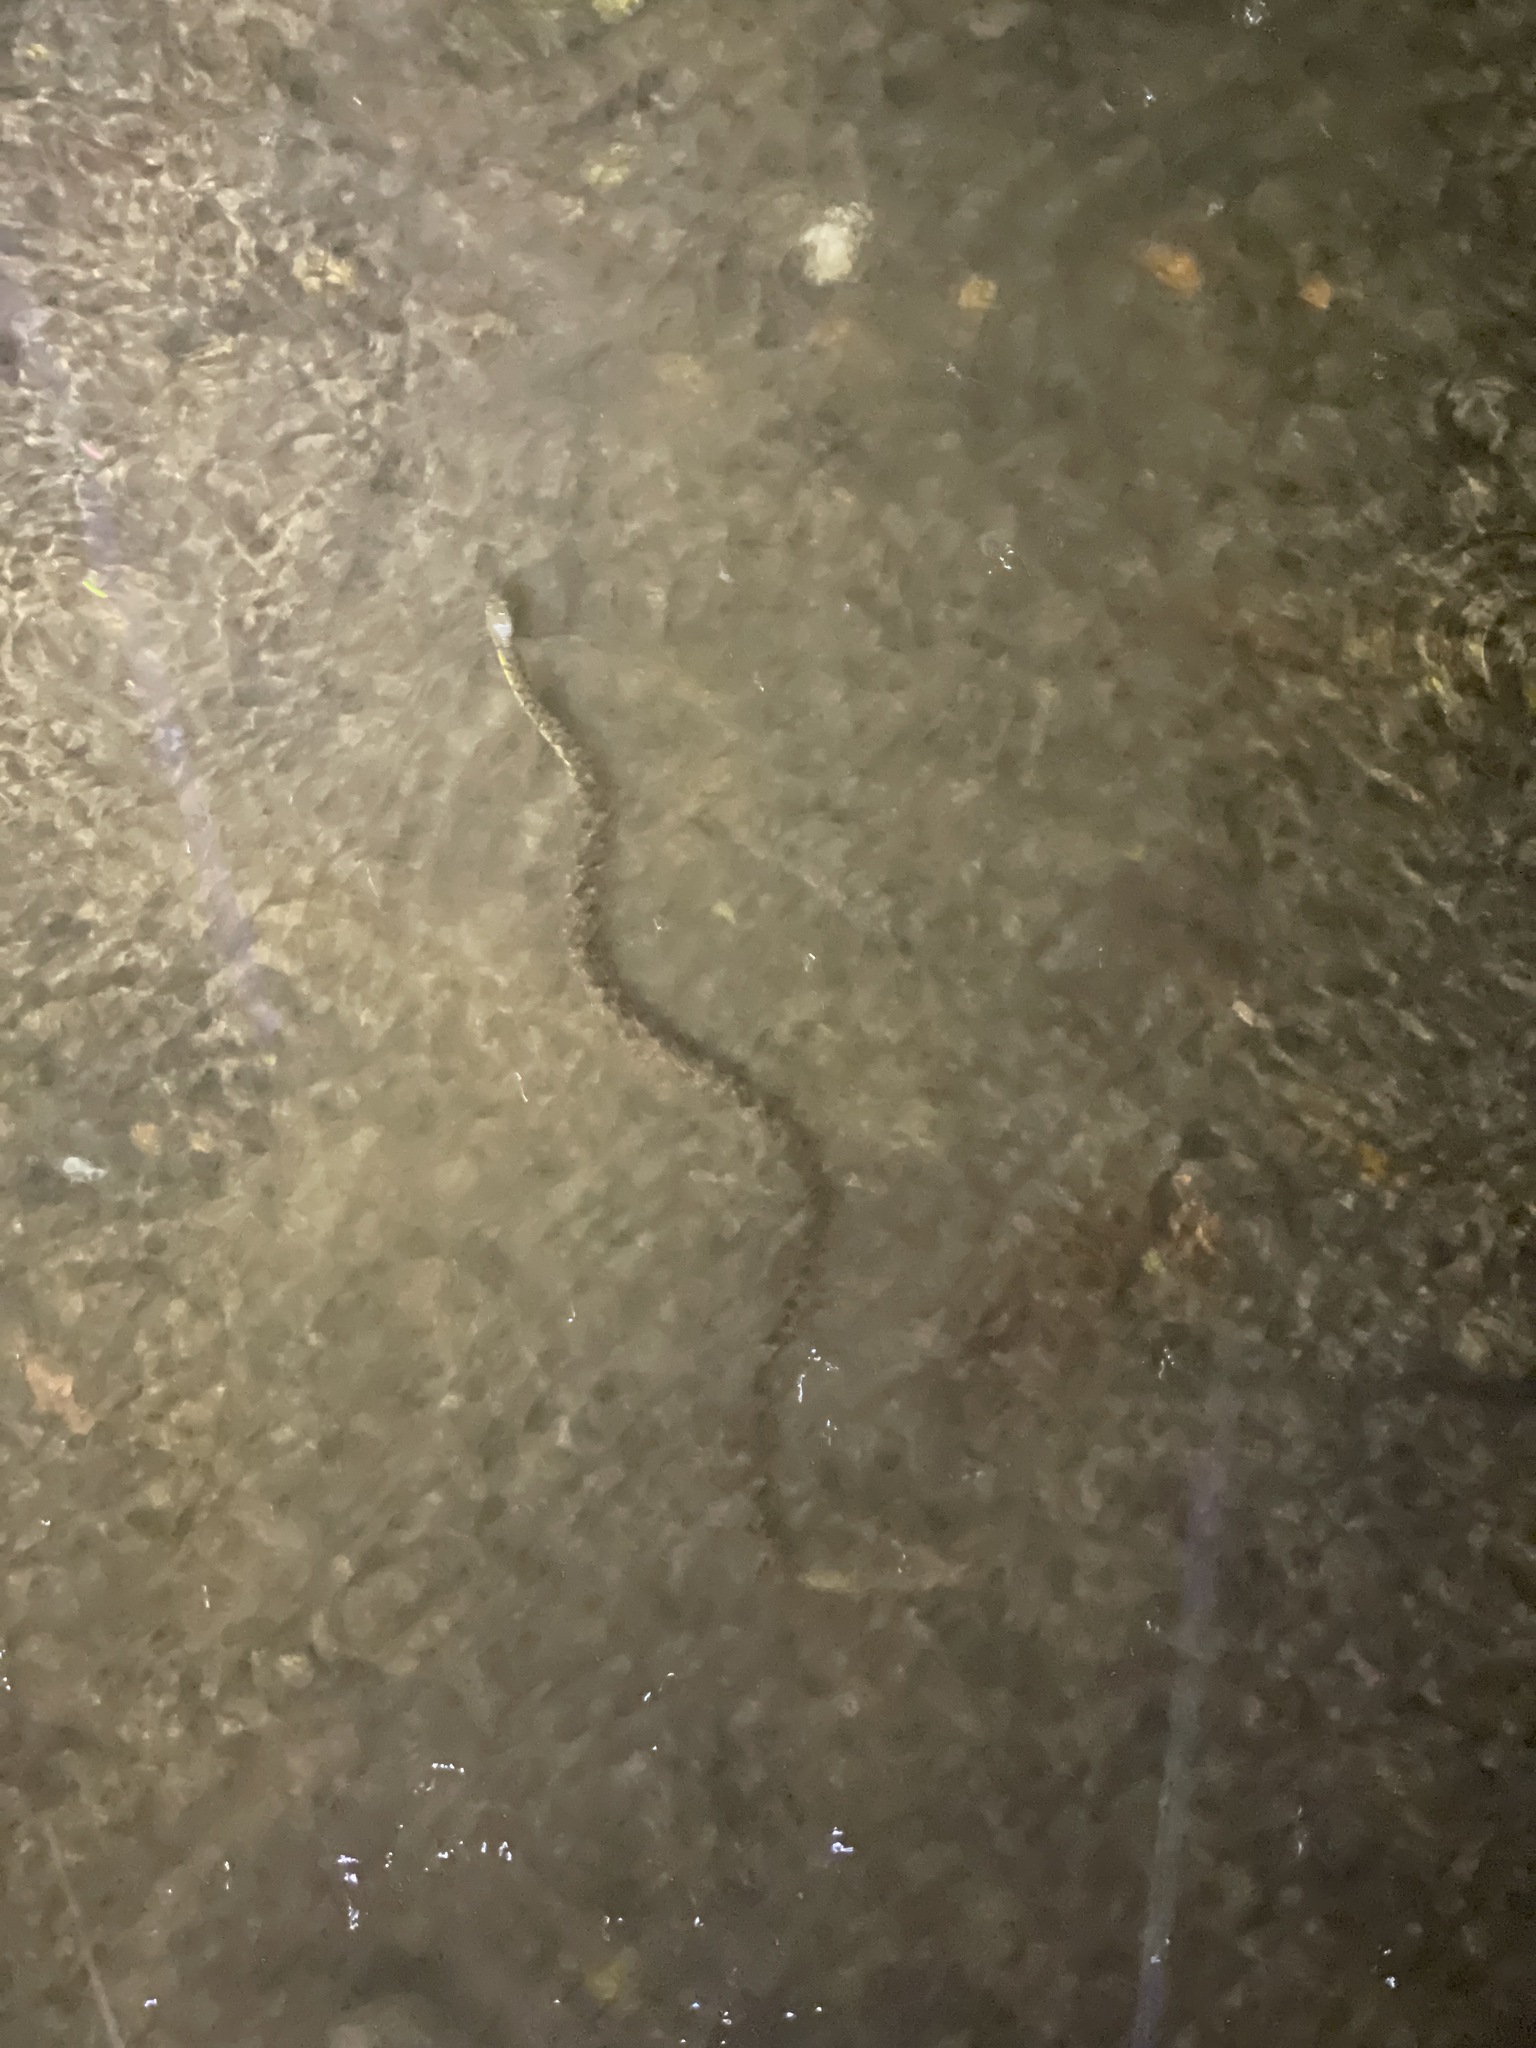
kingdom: Animalia
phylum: Chordata
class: Squamata
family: Colubridae
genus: Trimerodytes
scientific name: Trimerodytes percarinatus
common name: Eastern water snake
